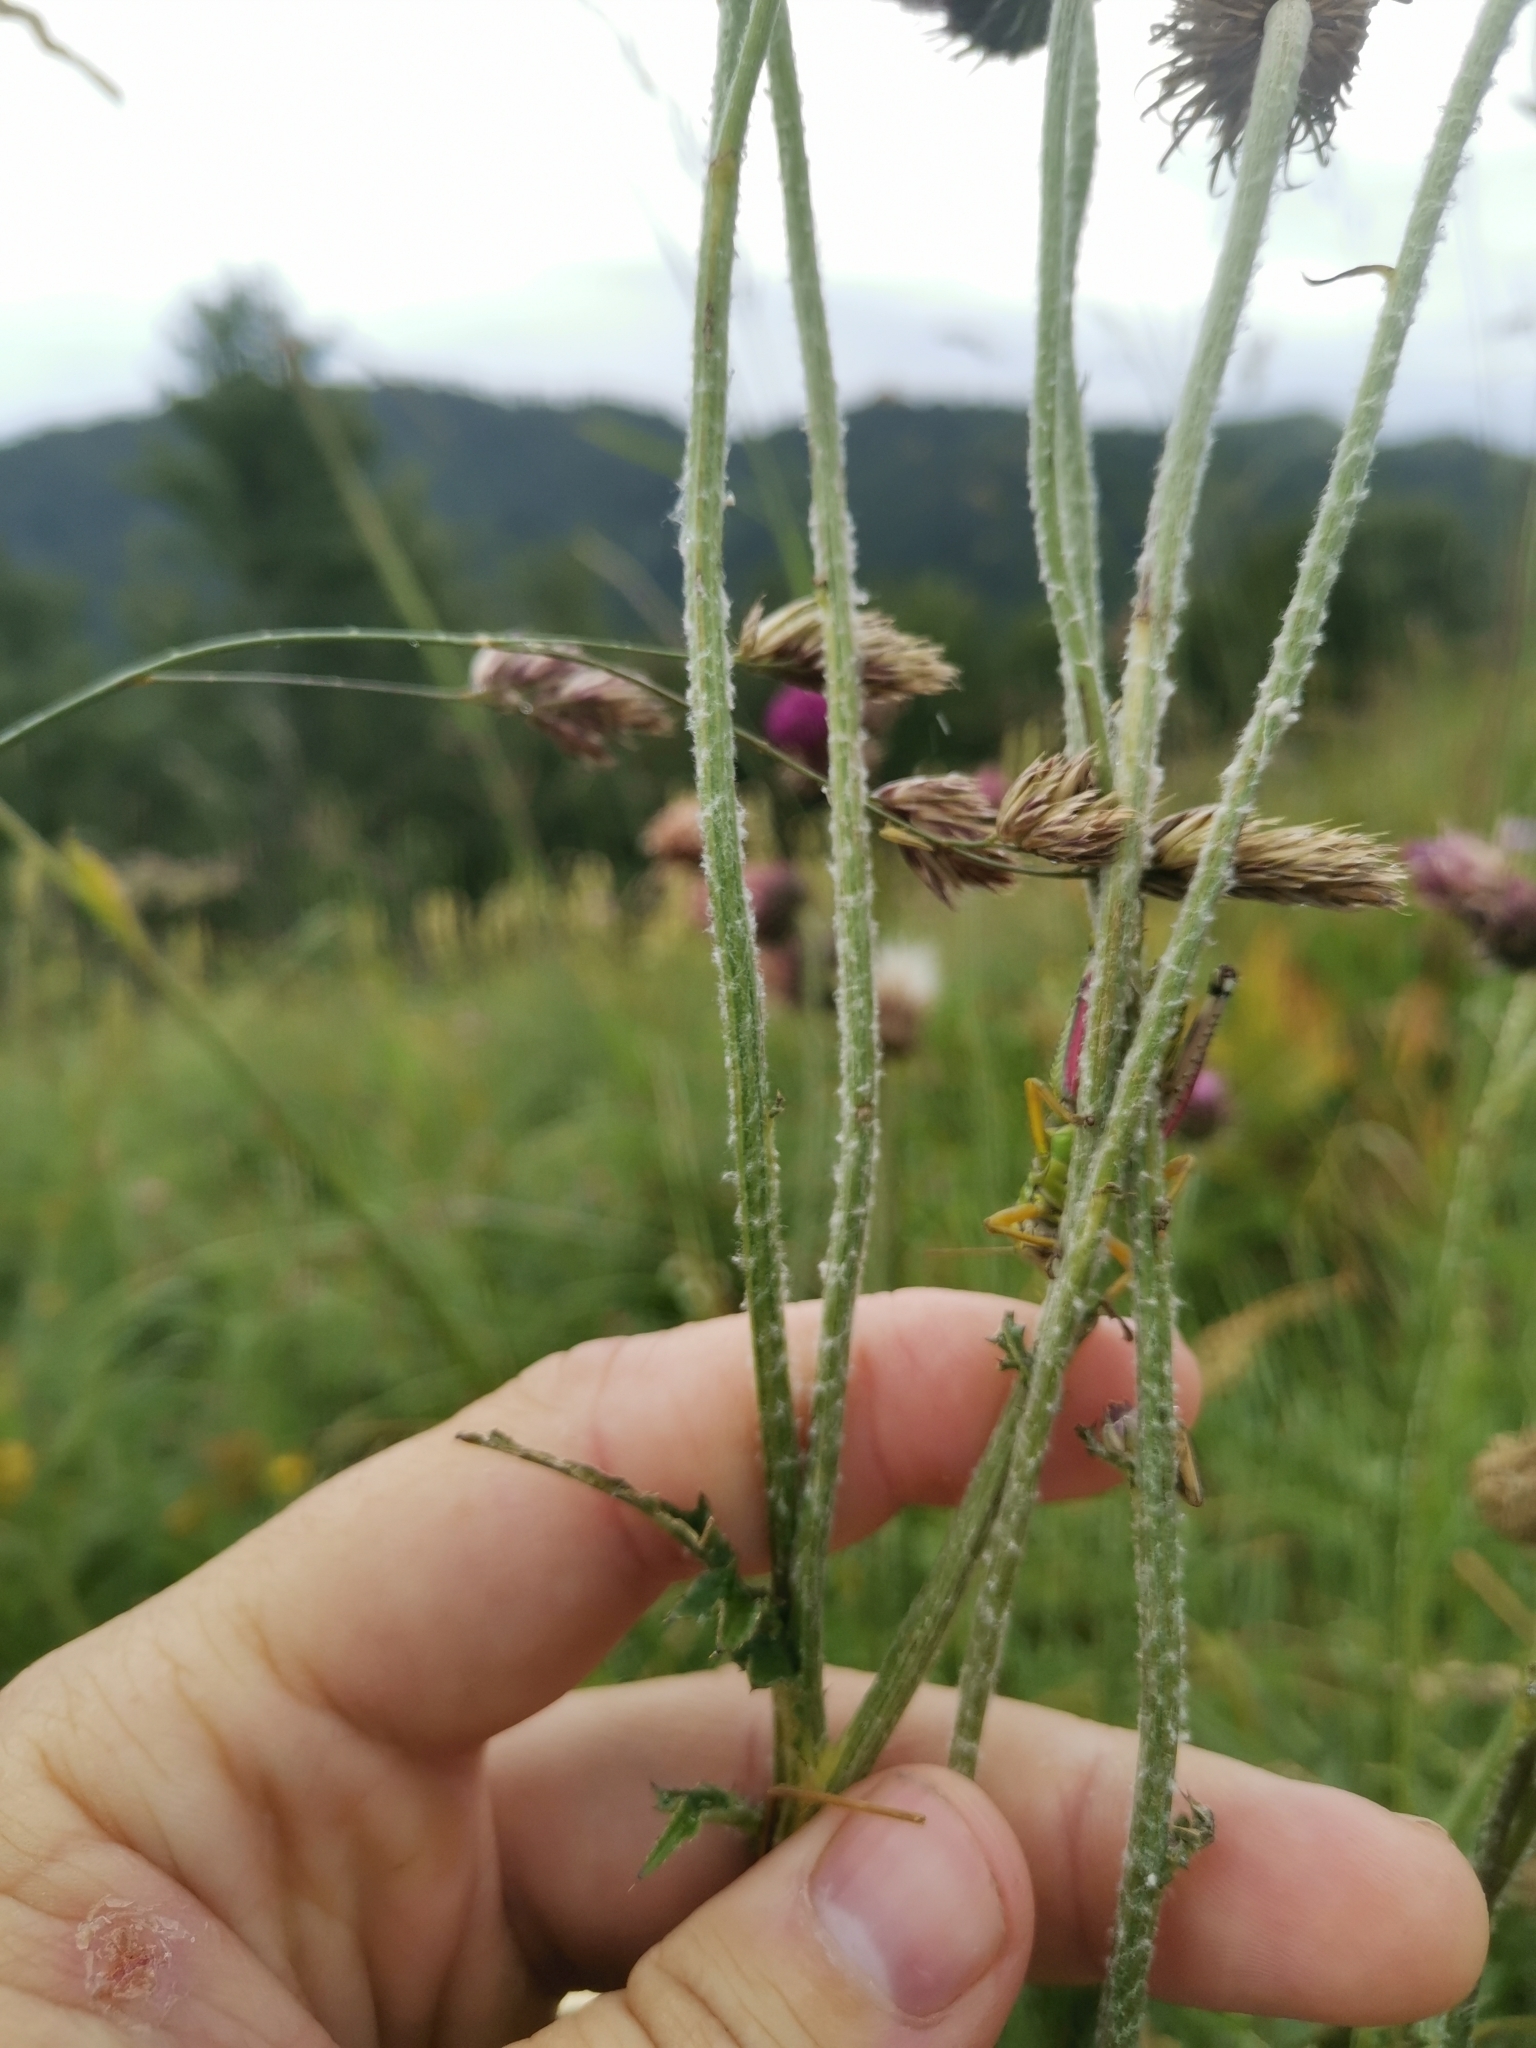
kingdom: Plantae
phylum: Tracheophyta
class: Magnoliopsida
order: Asterales
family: Asteraceae
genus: Carduus
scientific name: Carduus carduelis
